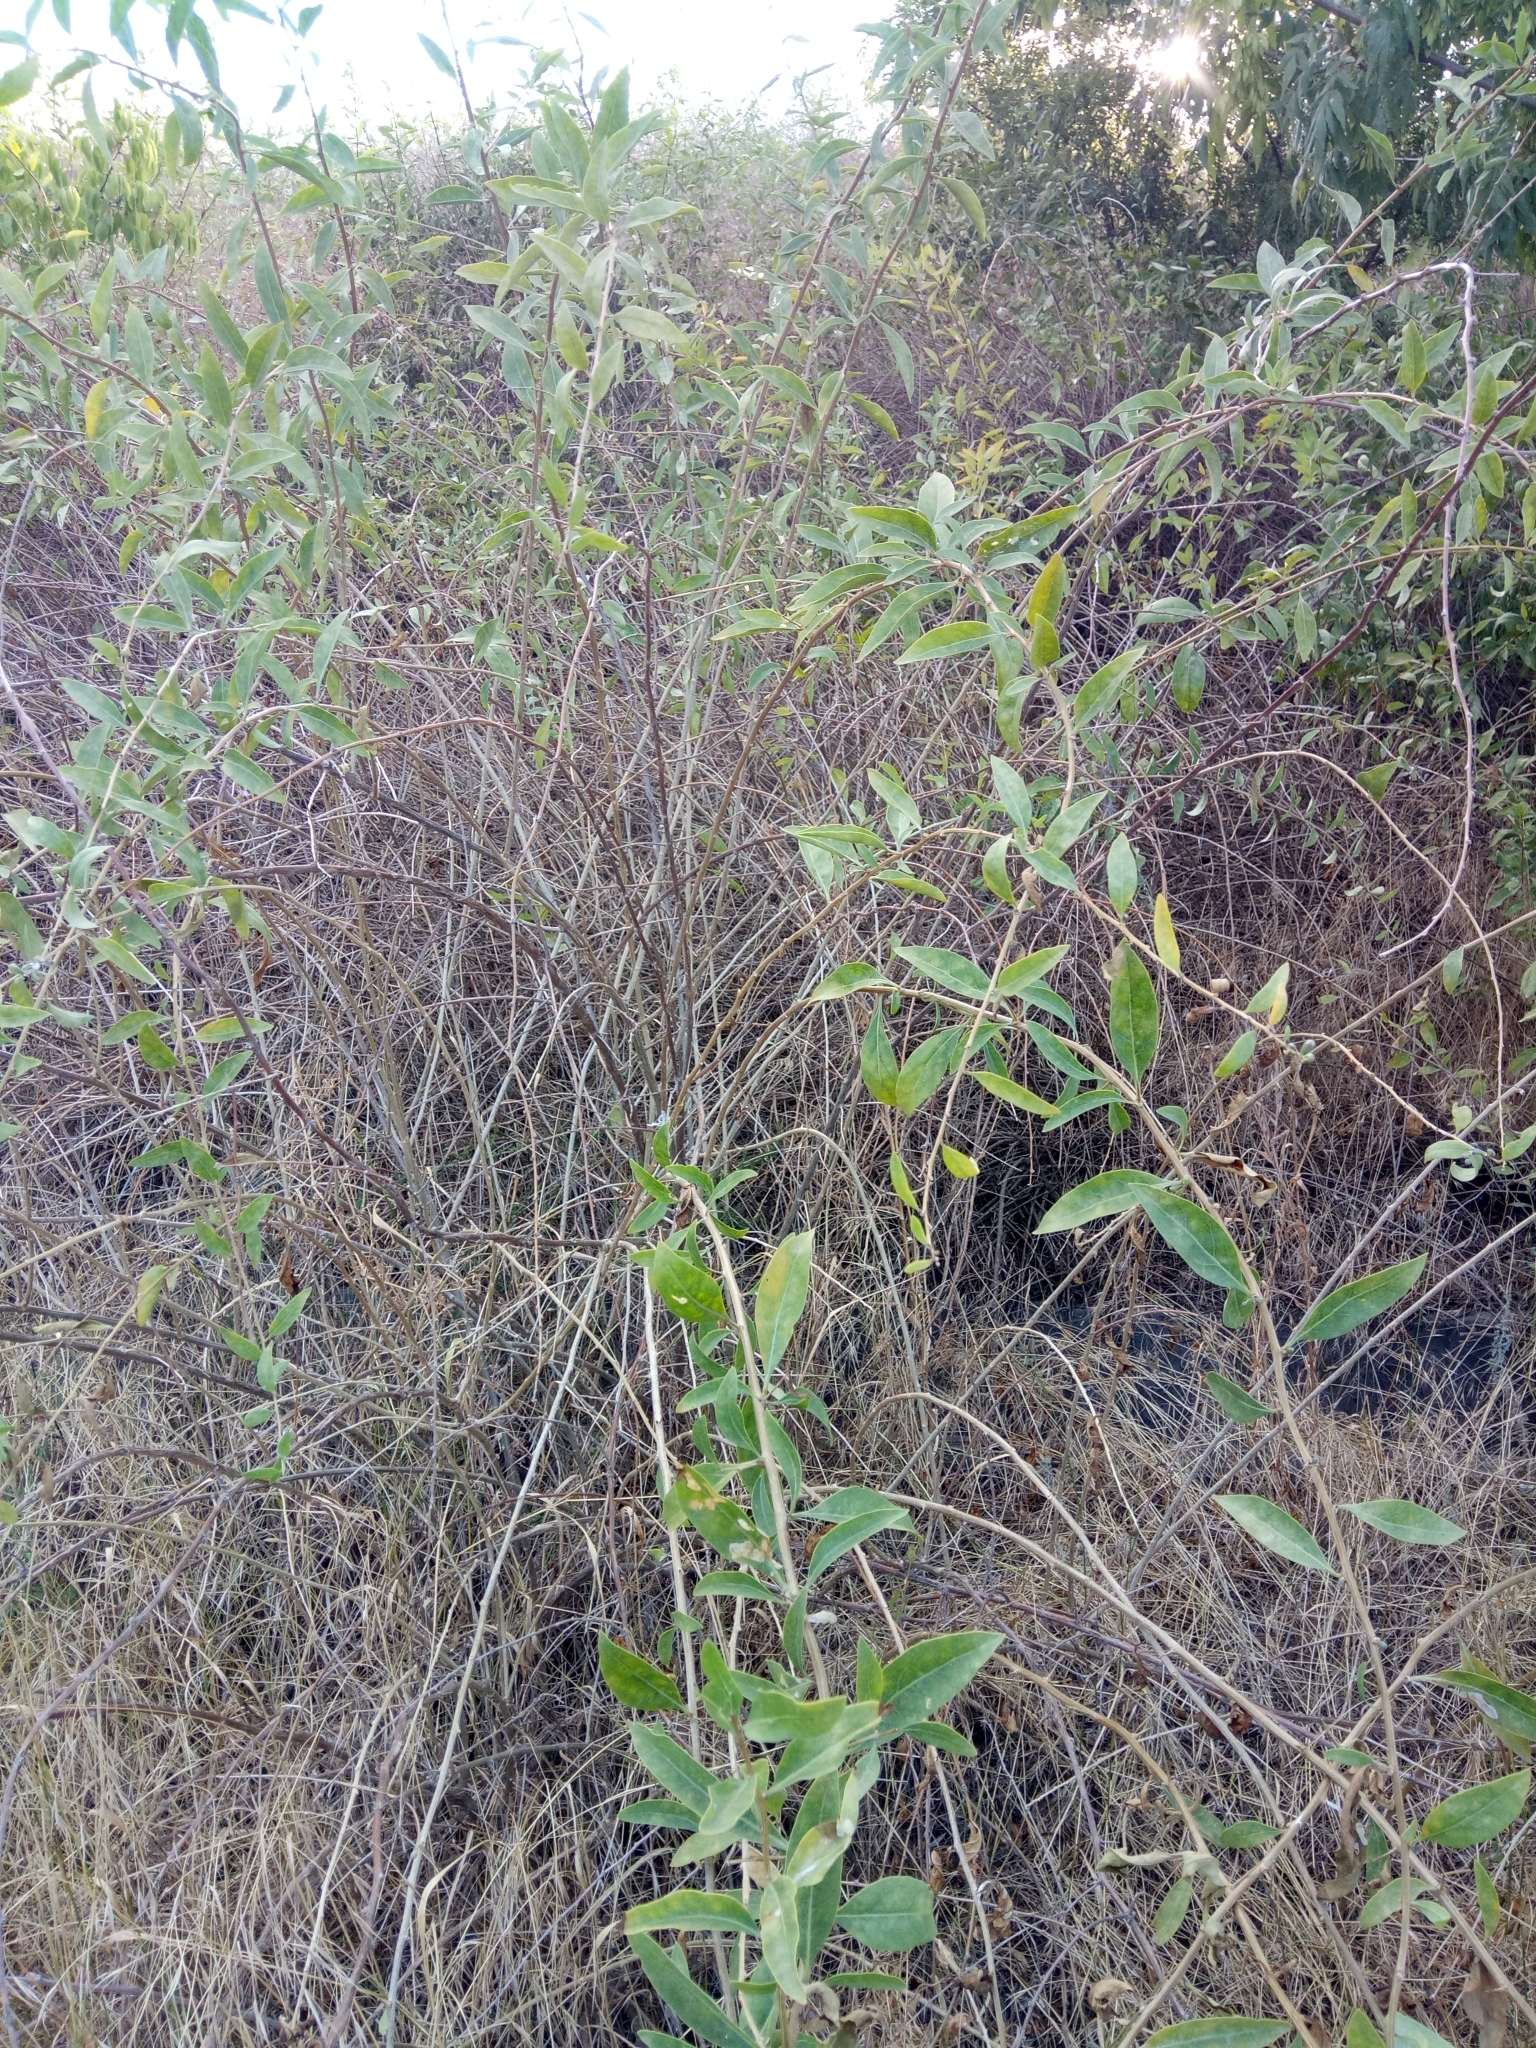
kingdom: Plantae
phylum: Tracheophyta
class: Magnoliopsida
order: Solanales
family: Solanaceae
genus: Lycium
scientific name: Lycium barbarum
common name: Duke of argyll's teaplant
